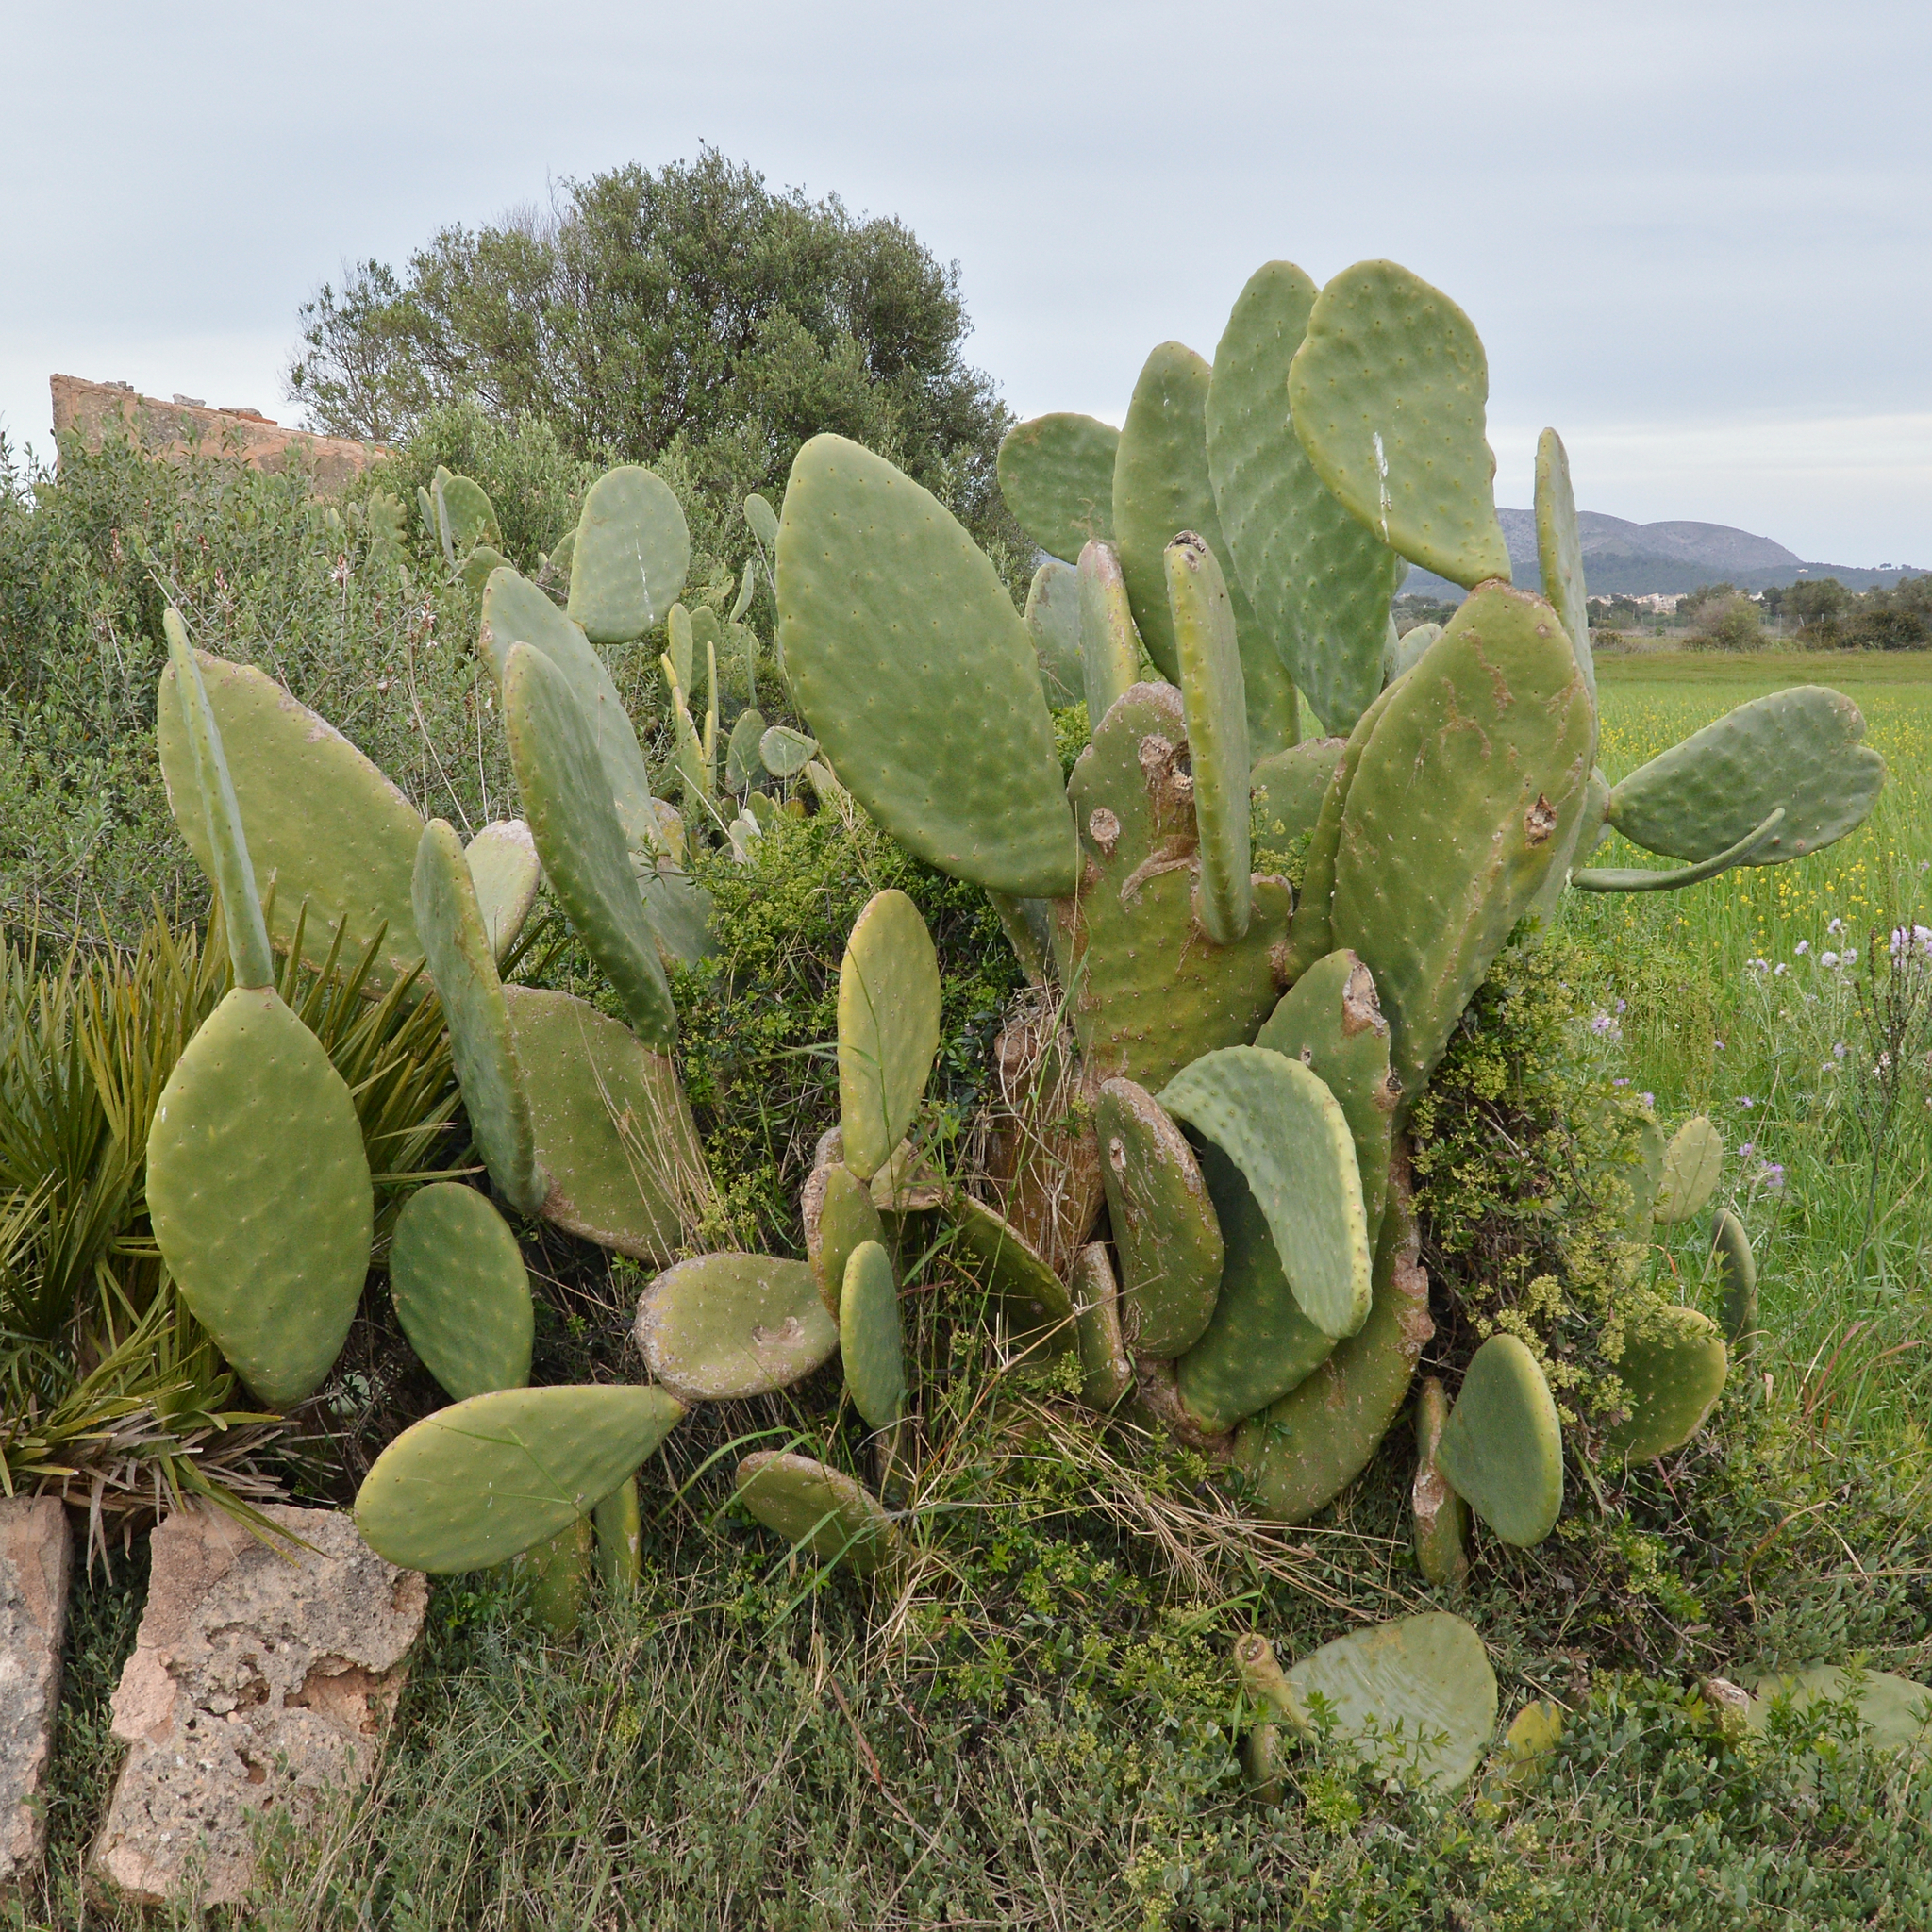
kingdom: Plantae
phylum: Tracheophyta
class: Magnoliopsida
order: Caryophyllales
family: Cactaceae
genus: Opuntia
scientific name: Opuntia ficus-indica
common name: Barbary fig
